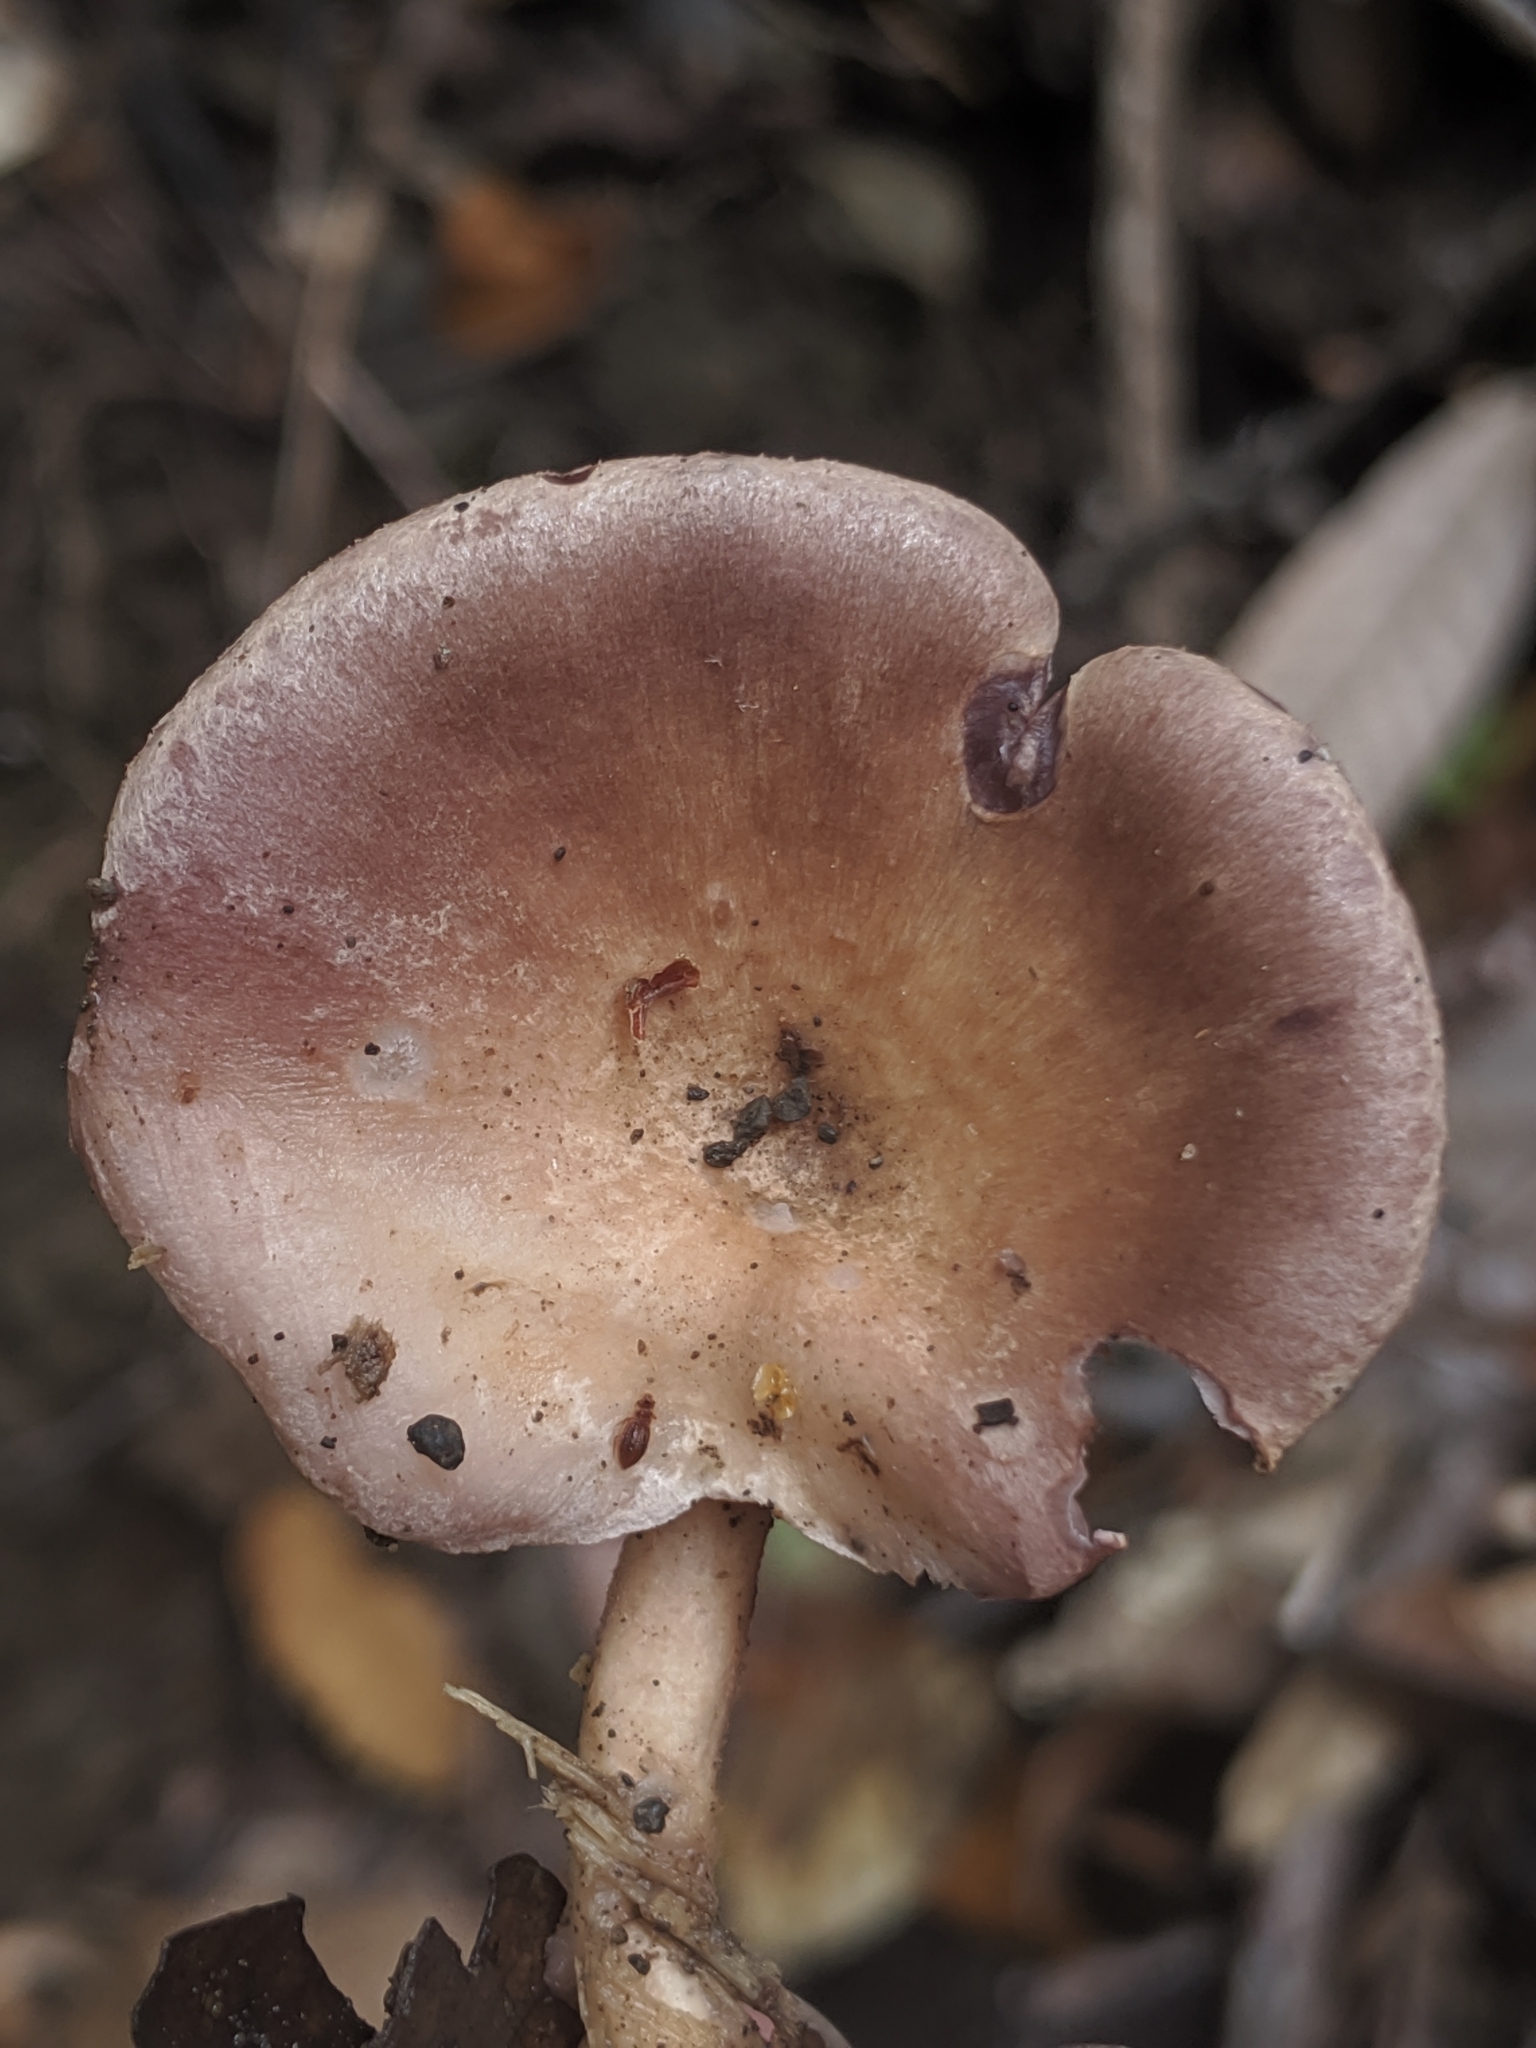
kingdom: Fungi
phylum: Basidiomycota
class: Agaricomycetes
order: Polyporales
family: Panaceae
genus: Panus
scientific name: Panus conchatus
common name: Lilac oysterling
